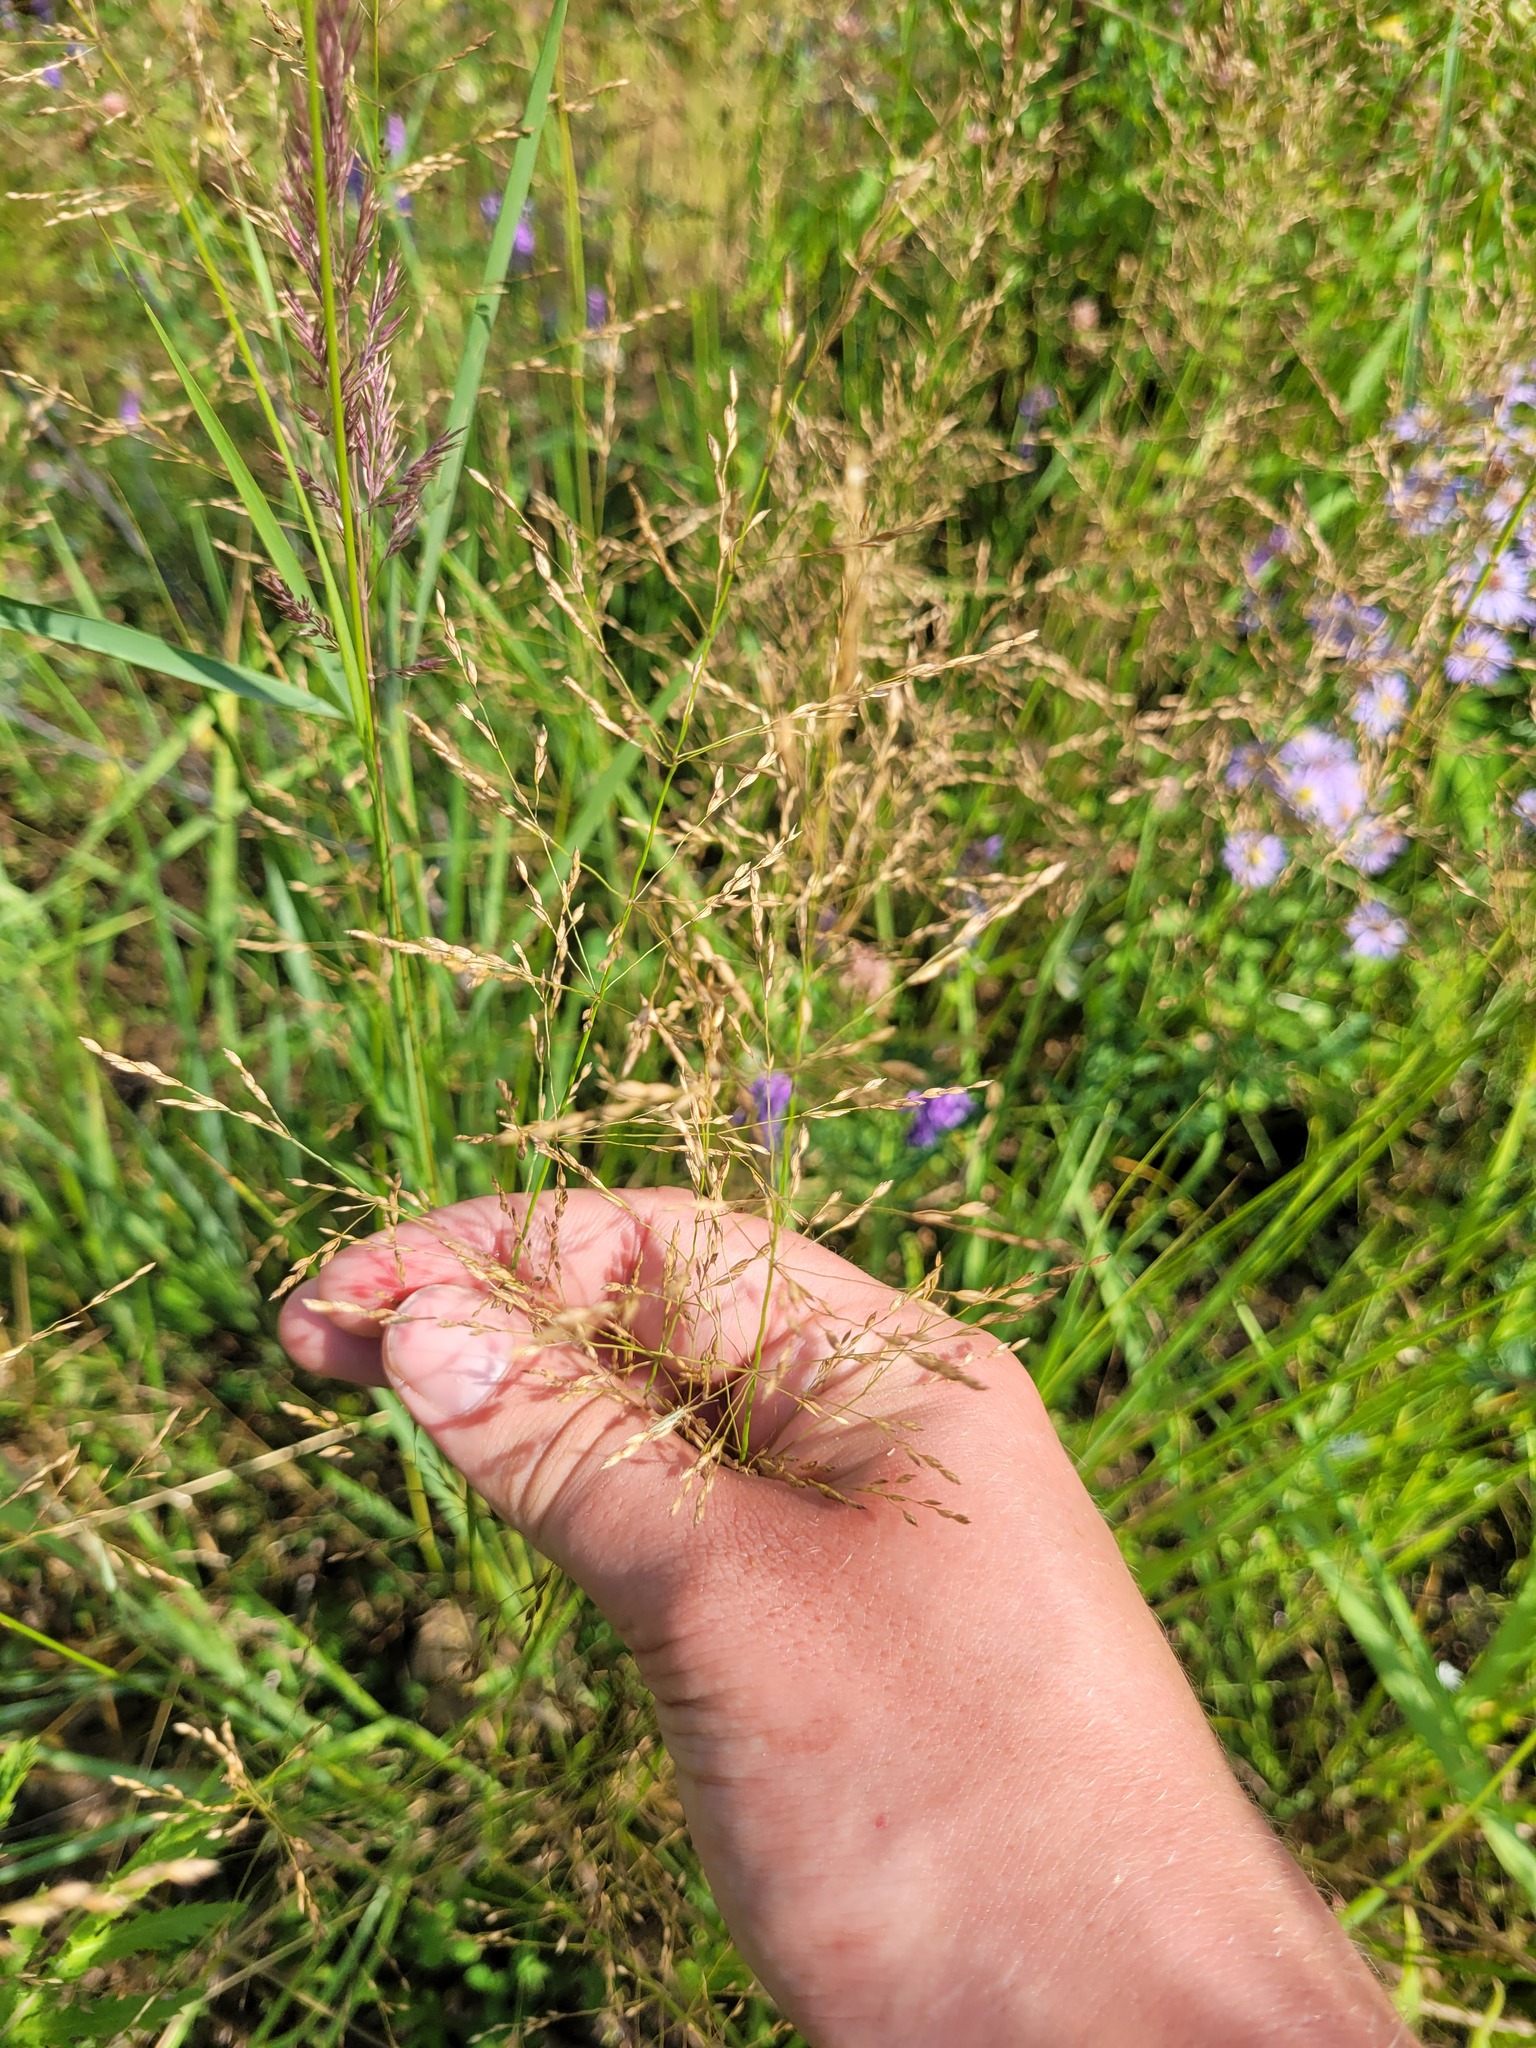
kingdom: Plantae
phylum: Tracheophyta
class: Liliopsida
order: Poales
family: Poaceae
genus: Poa
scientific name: Poa palustris
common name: Swamp meadow-grass
